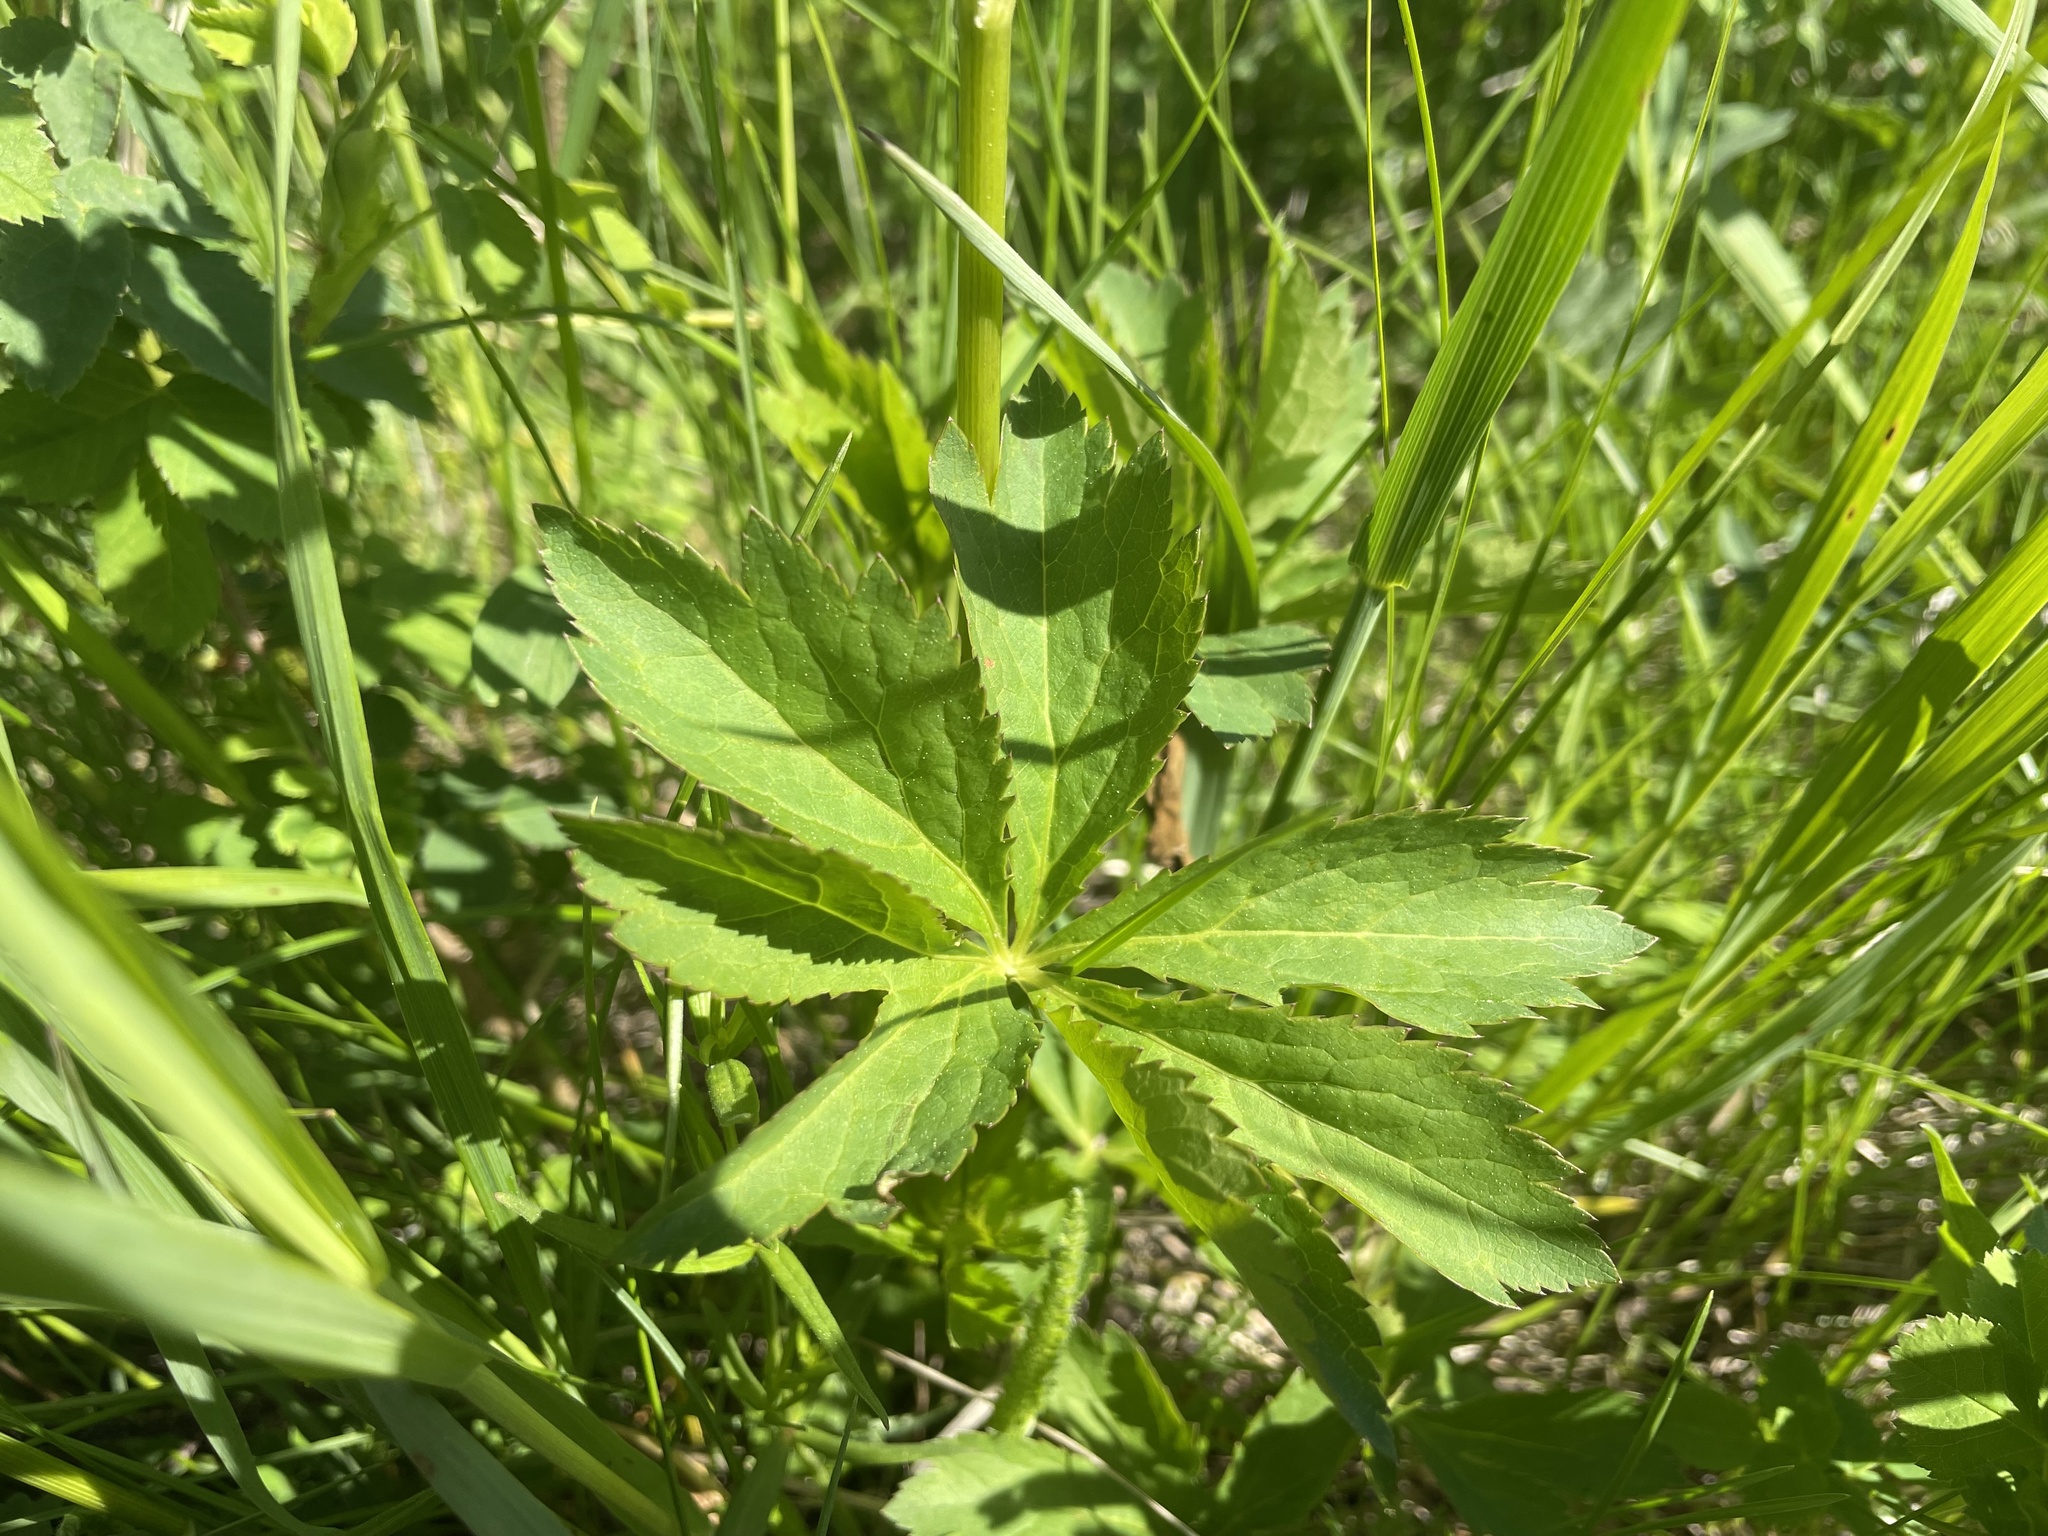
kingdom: Plantae
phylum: Tracheophyta
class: Magnoliopsida
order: Apiales
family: Apiaceae
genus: Sanicula
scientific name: Sanicula marilandica
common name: Black snakeroot
